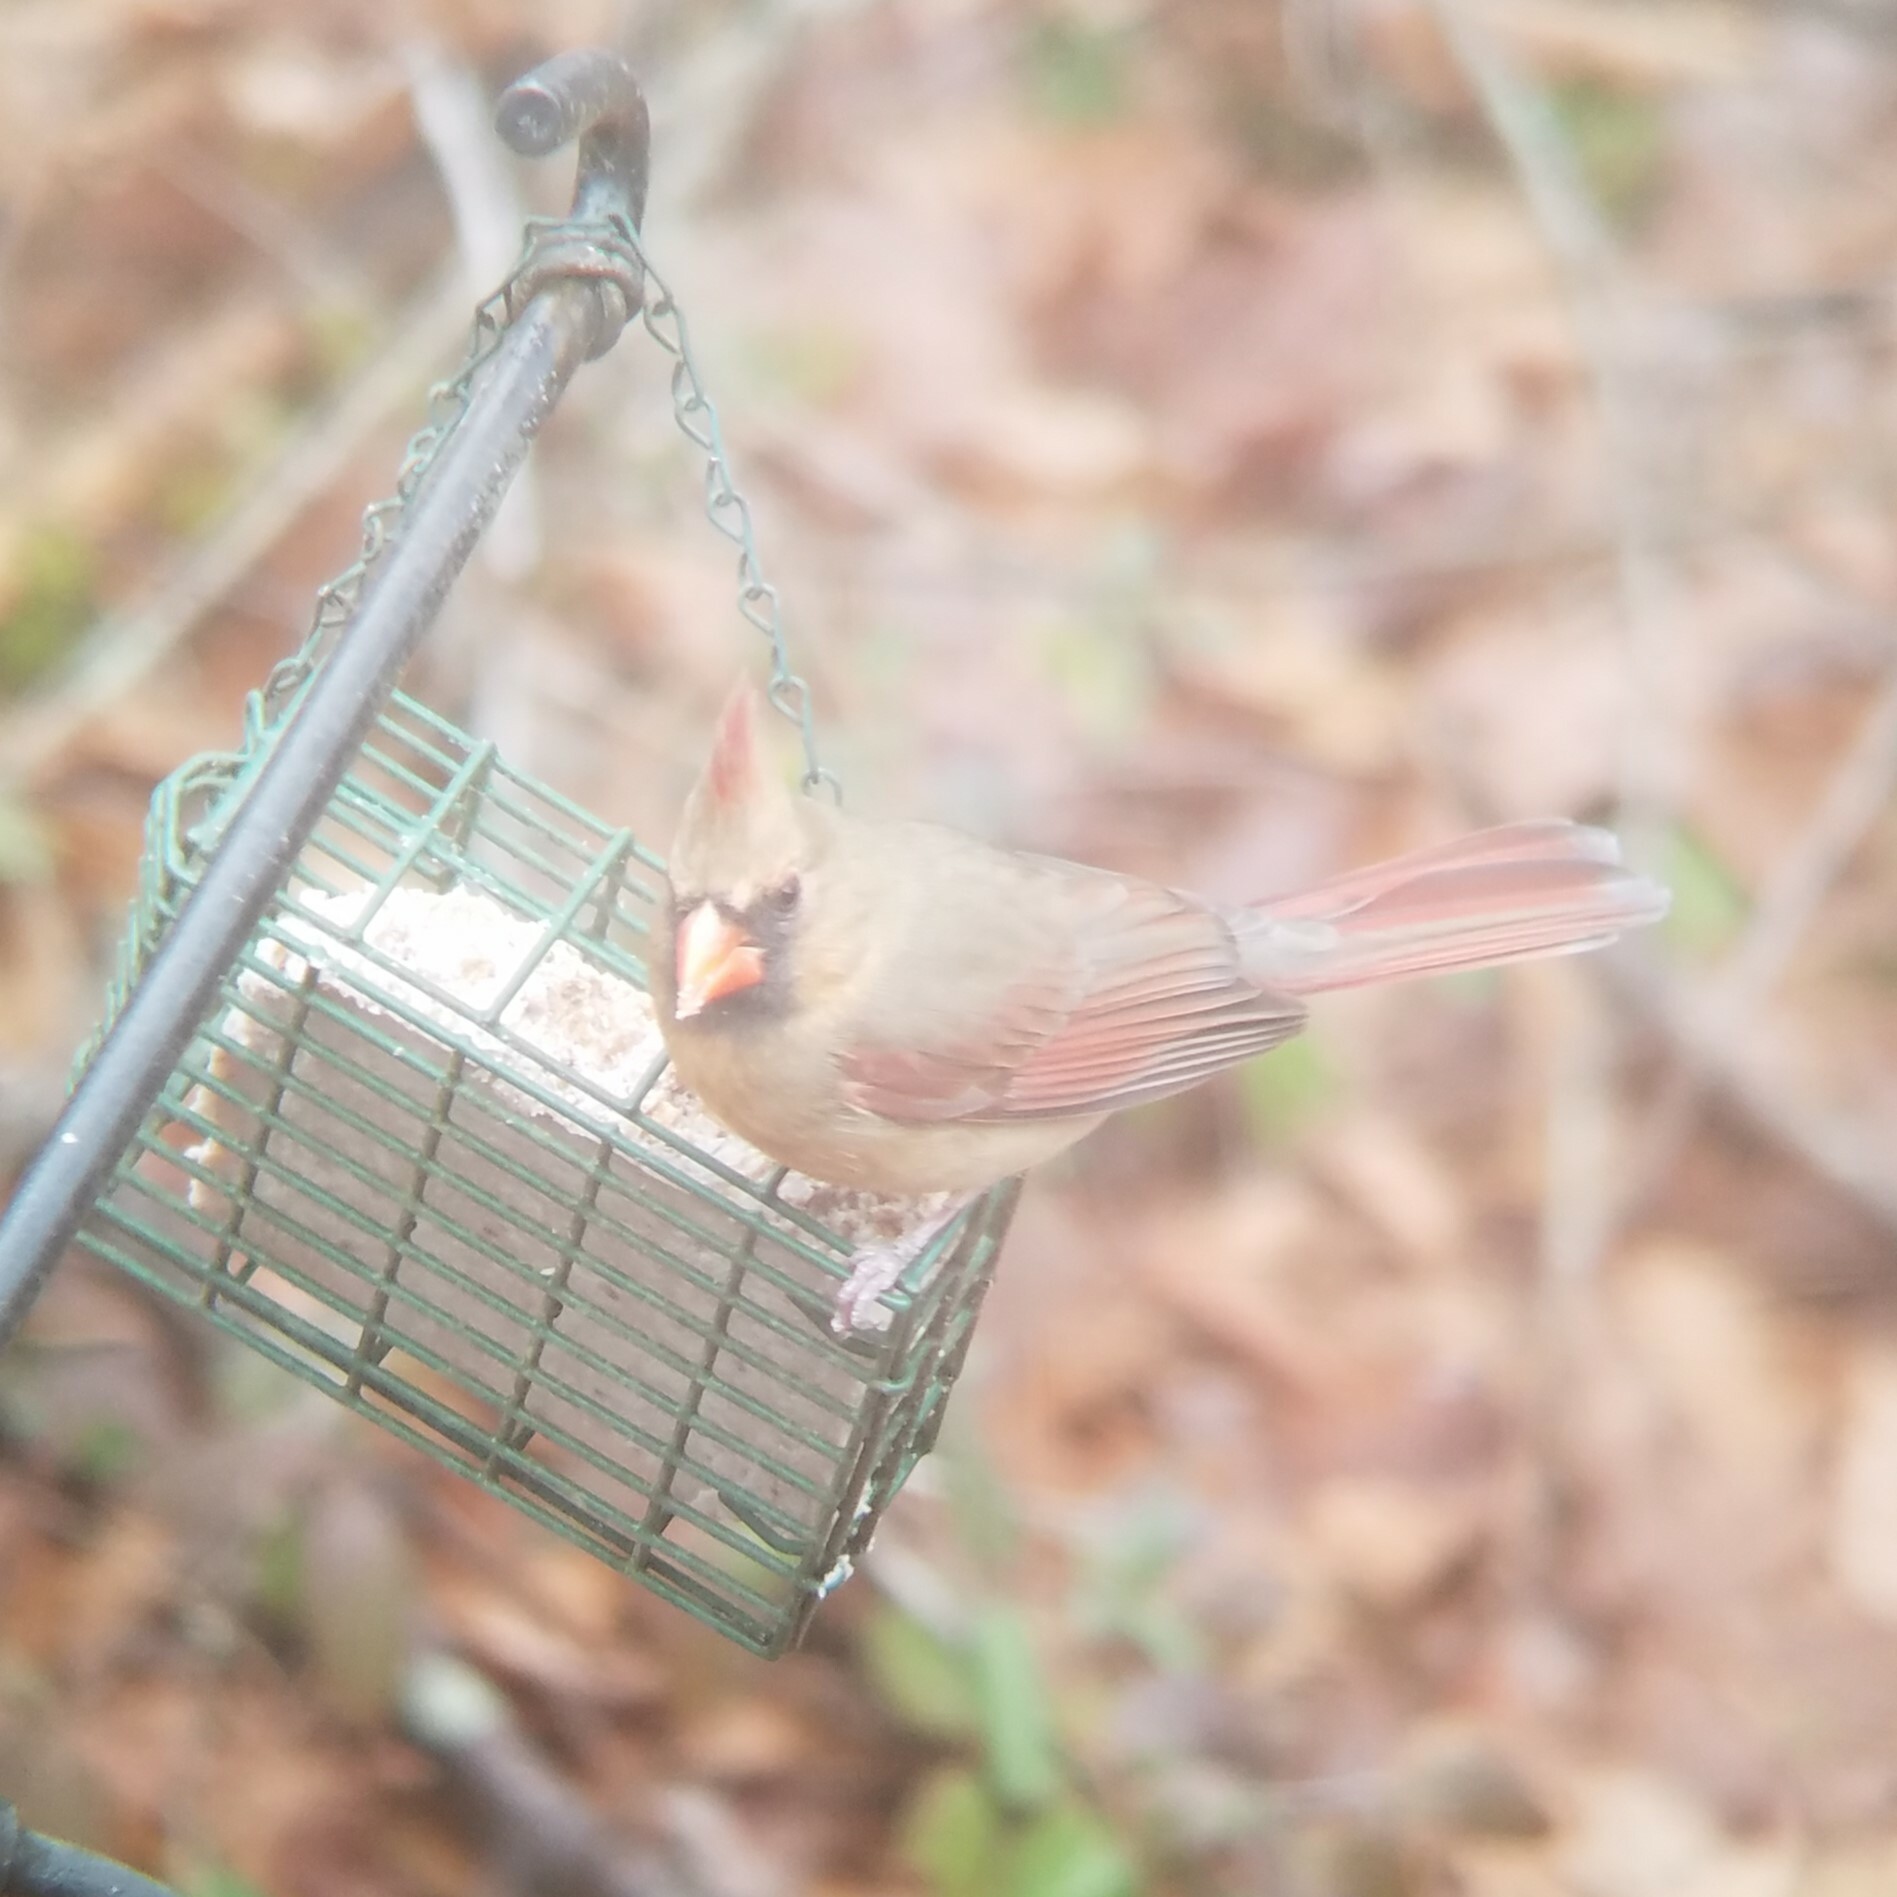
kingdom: Animalia
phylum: Chordata
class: Aves
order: Passeriformes
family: Cardinalidae
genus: Cardinalis
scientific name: Cardinalis cardinalis
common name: Northern cardinal
